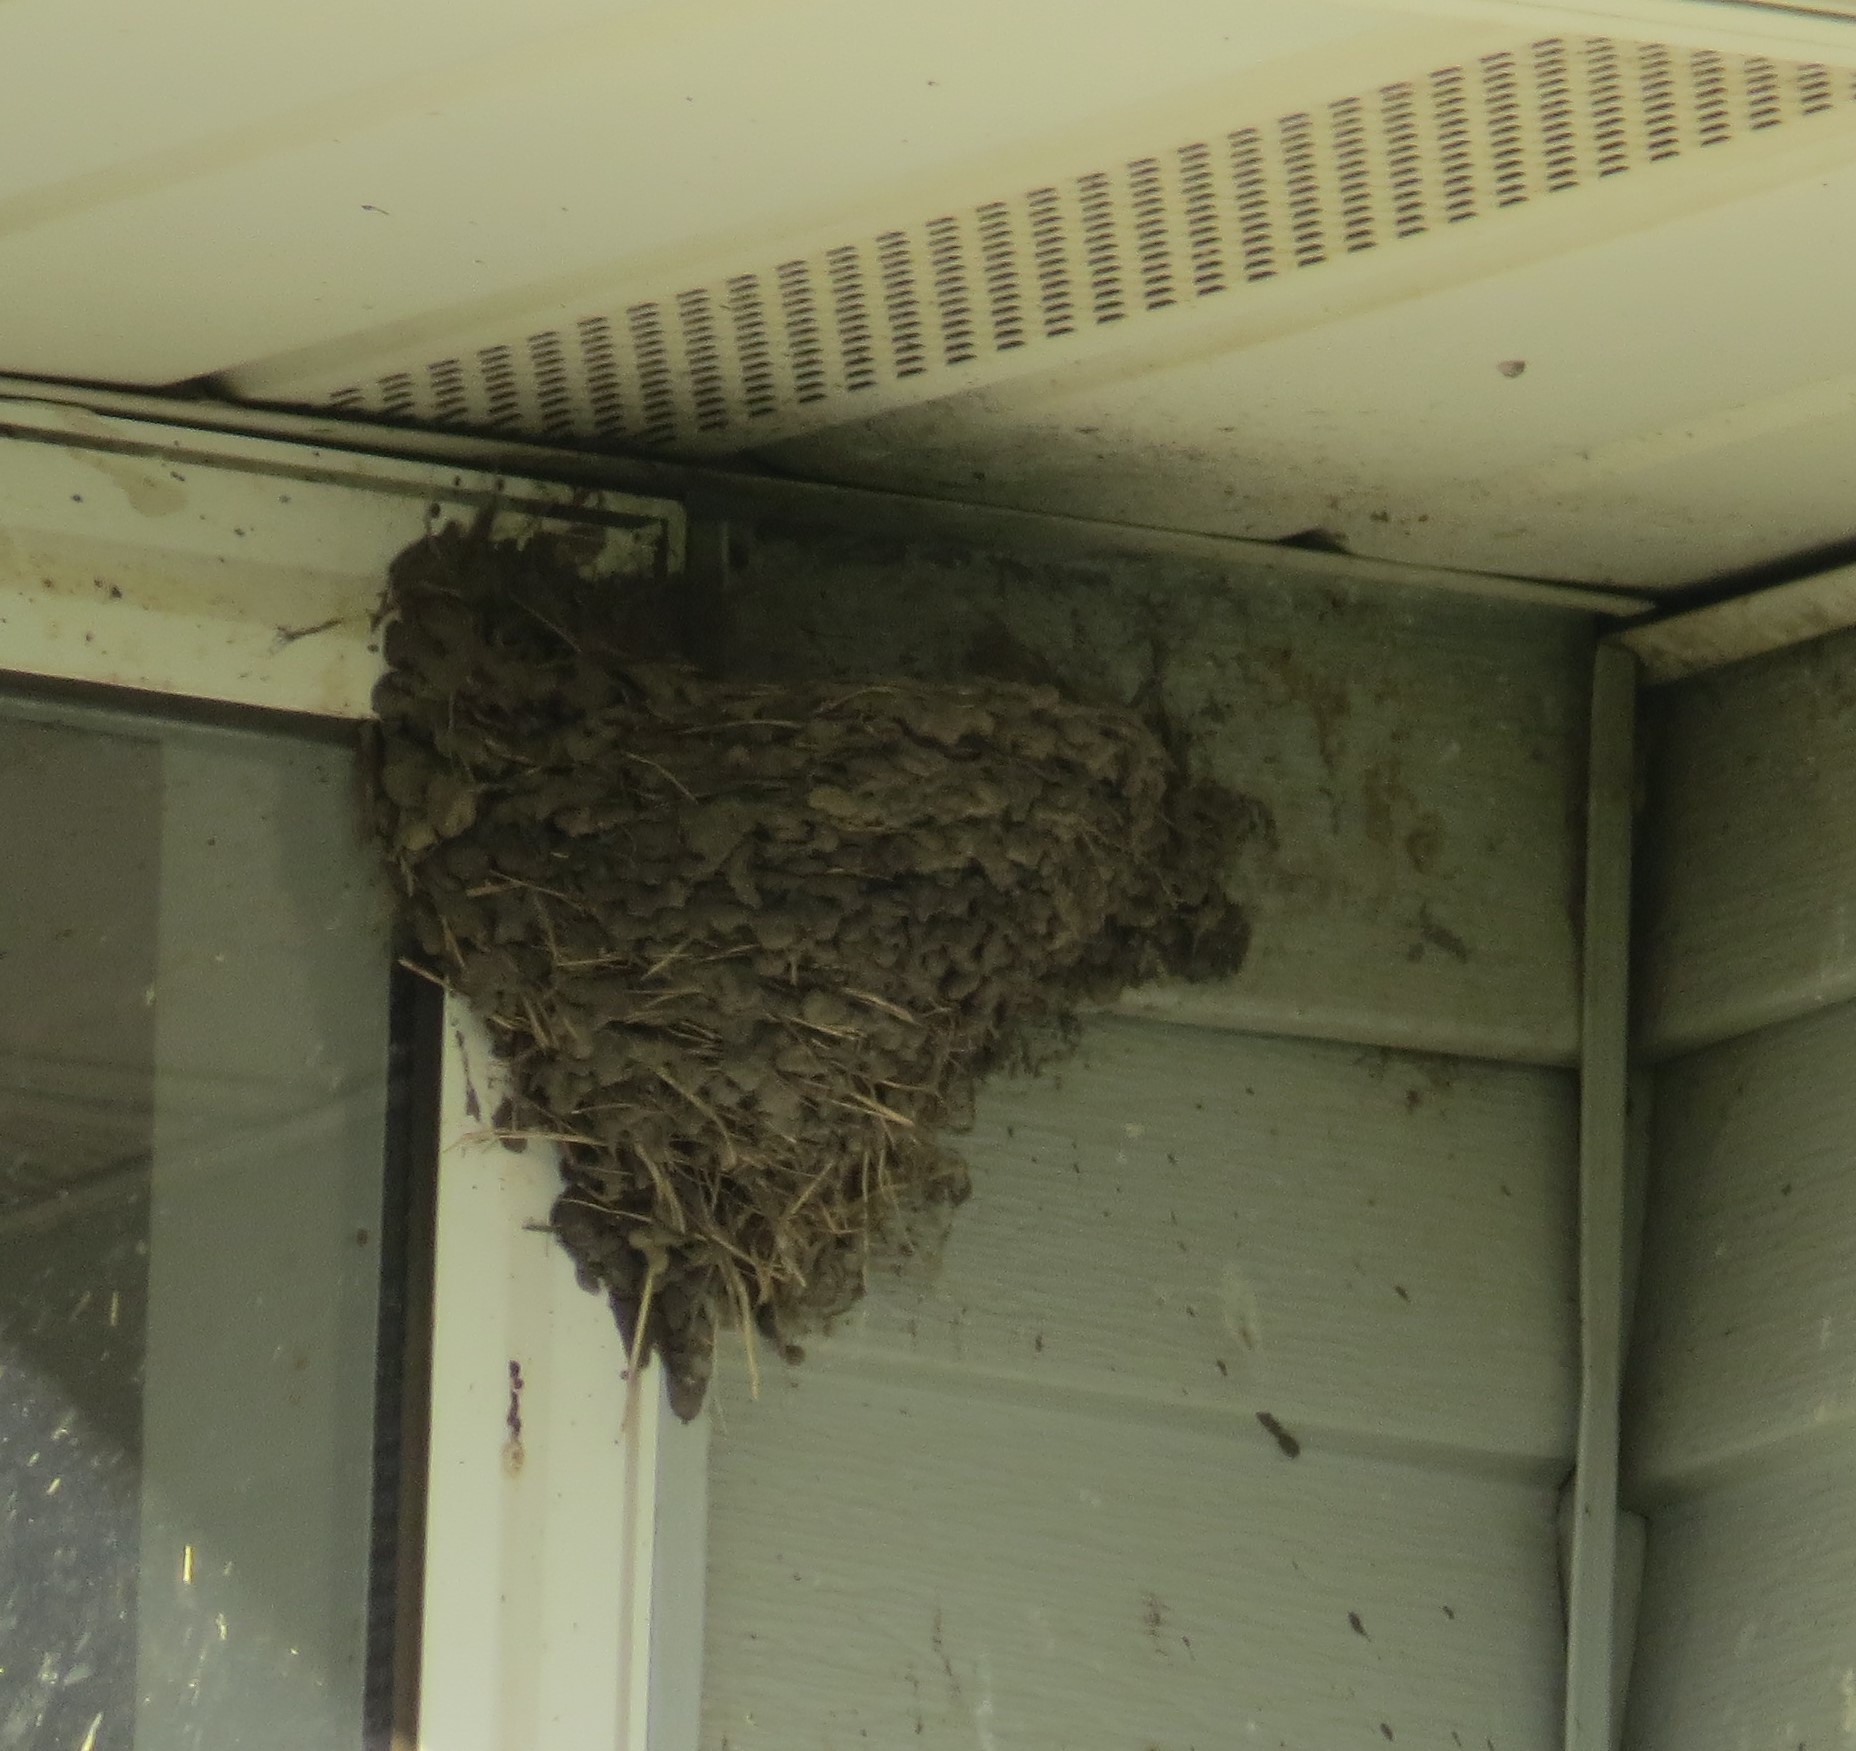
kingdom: Animalia
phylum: Chordata
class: Aves
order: Passeriformes
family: Hirundinidae
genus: Hirundo
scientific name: Hirundo rustica
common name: Barn swallow
